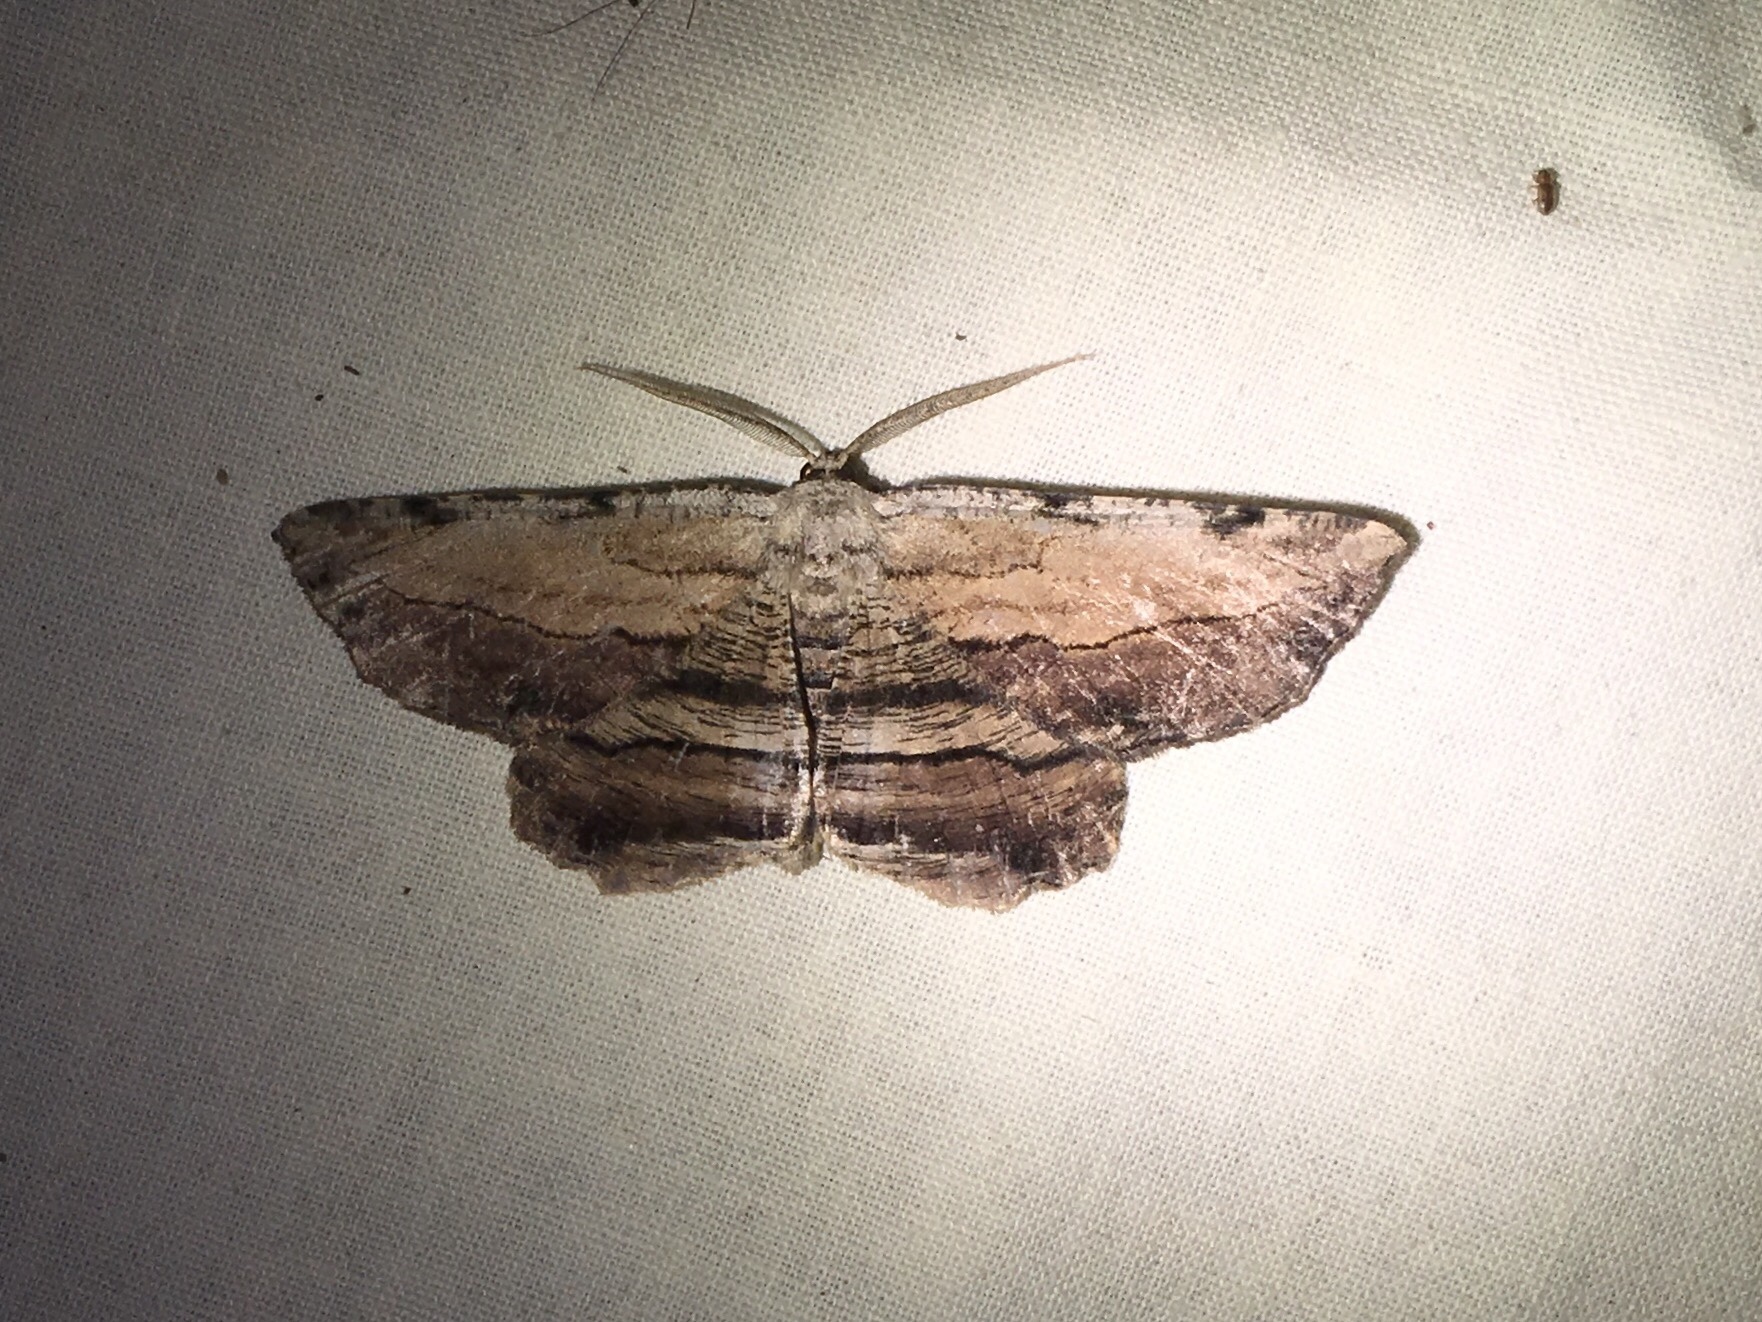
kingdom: Animalia
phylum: Arthropoda
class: Insecta
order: Lepidoptera
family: Geometridae
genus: Lytrosis
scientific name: Lytrosis unitaria
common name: Common lytrosis
